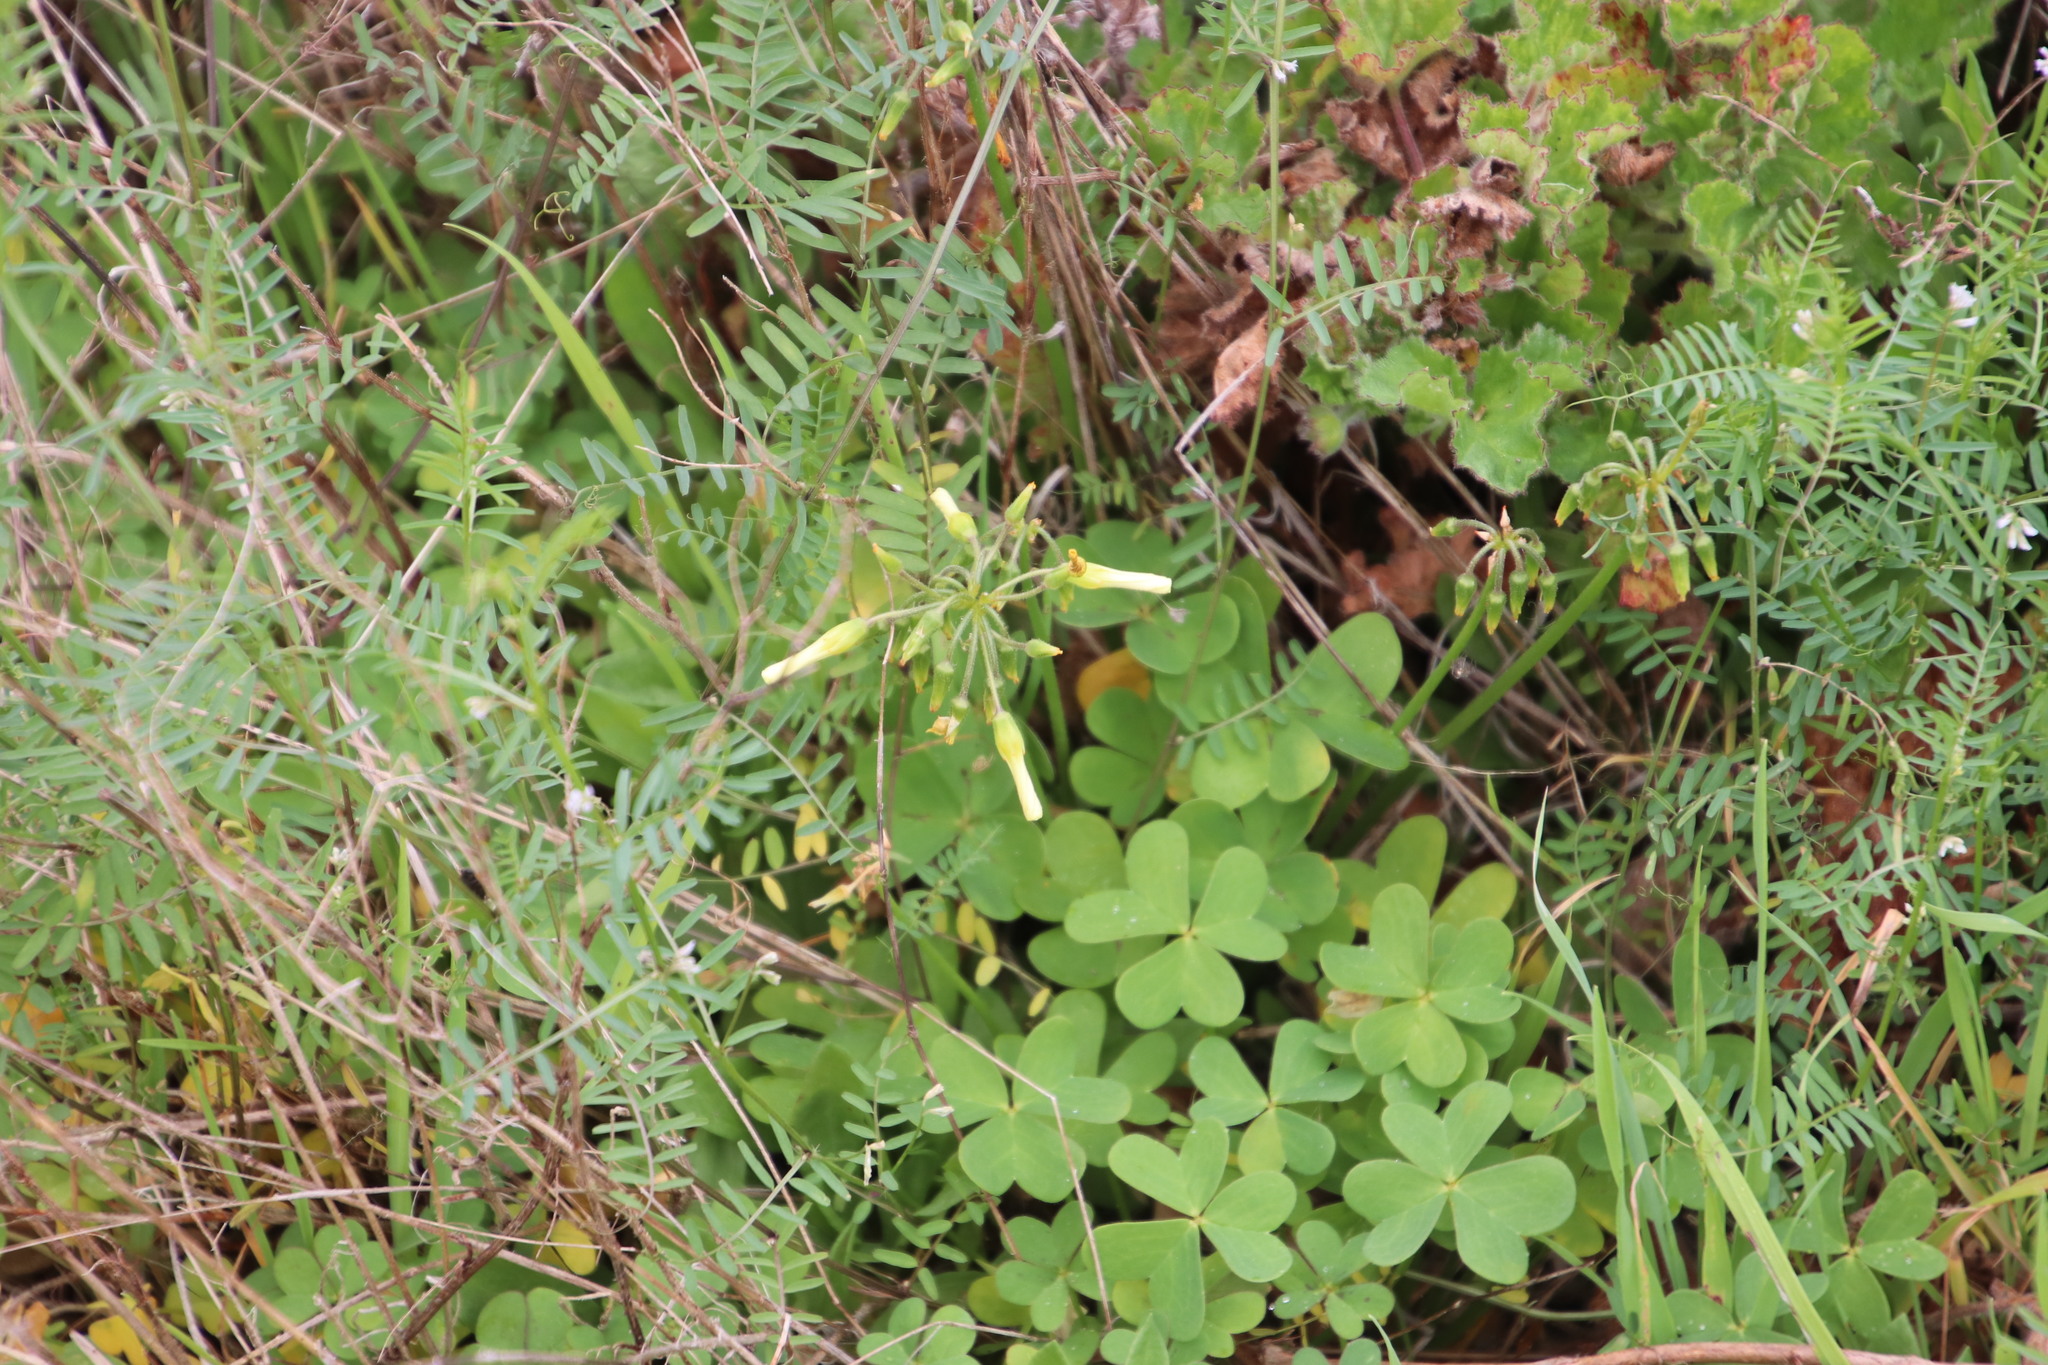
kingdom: Plantae
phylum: Tracheophyta
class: Magnoliopsida
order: Oxalidales
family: Oxalidaceae
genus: Oxalis
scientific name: Oxalis pes-caprae
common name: Bermuda-buttercup
